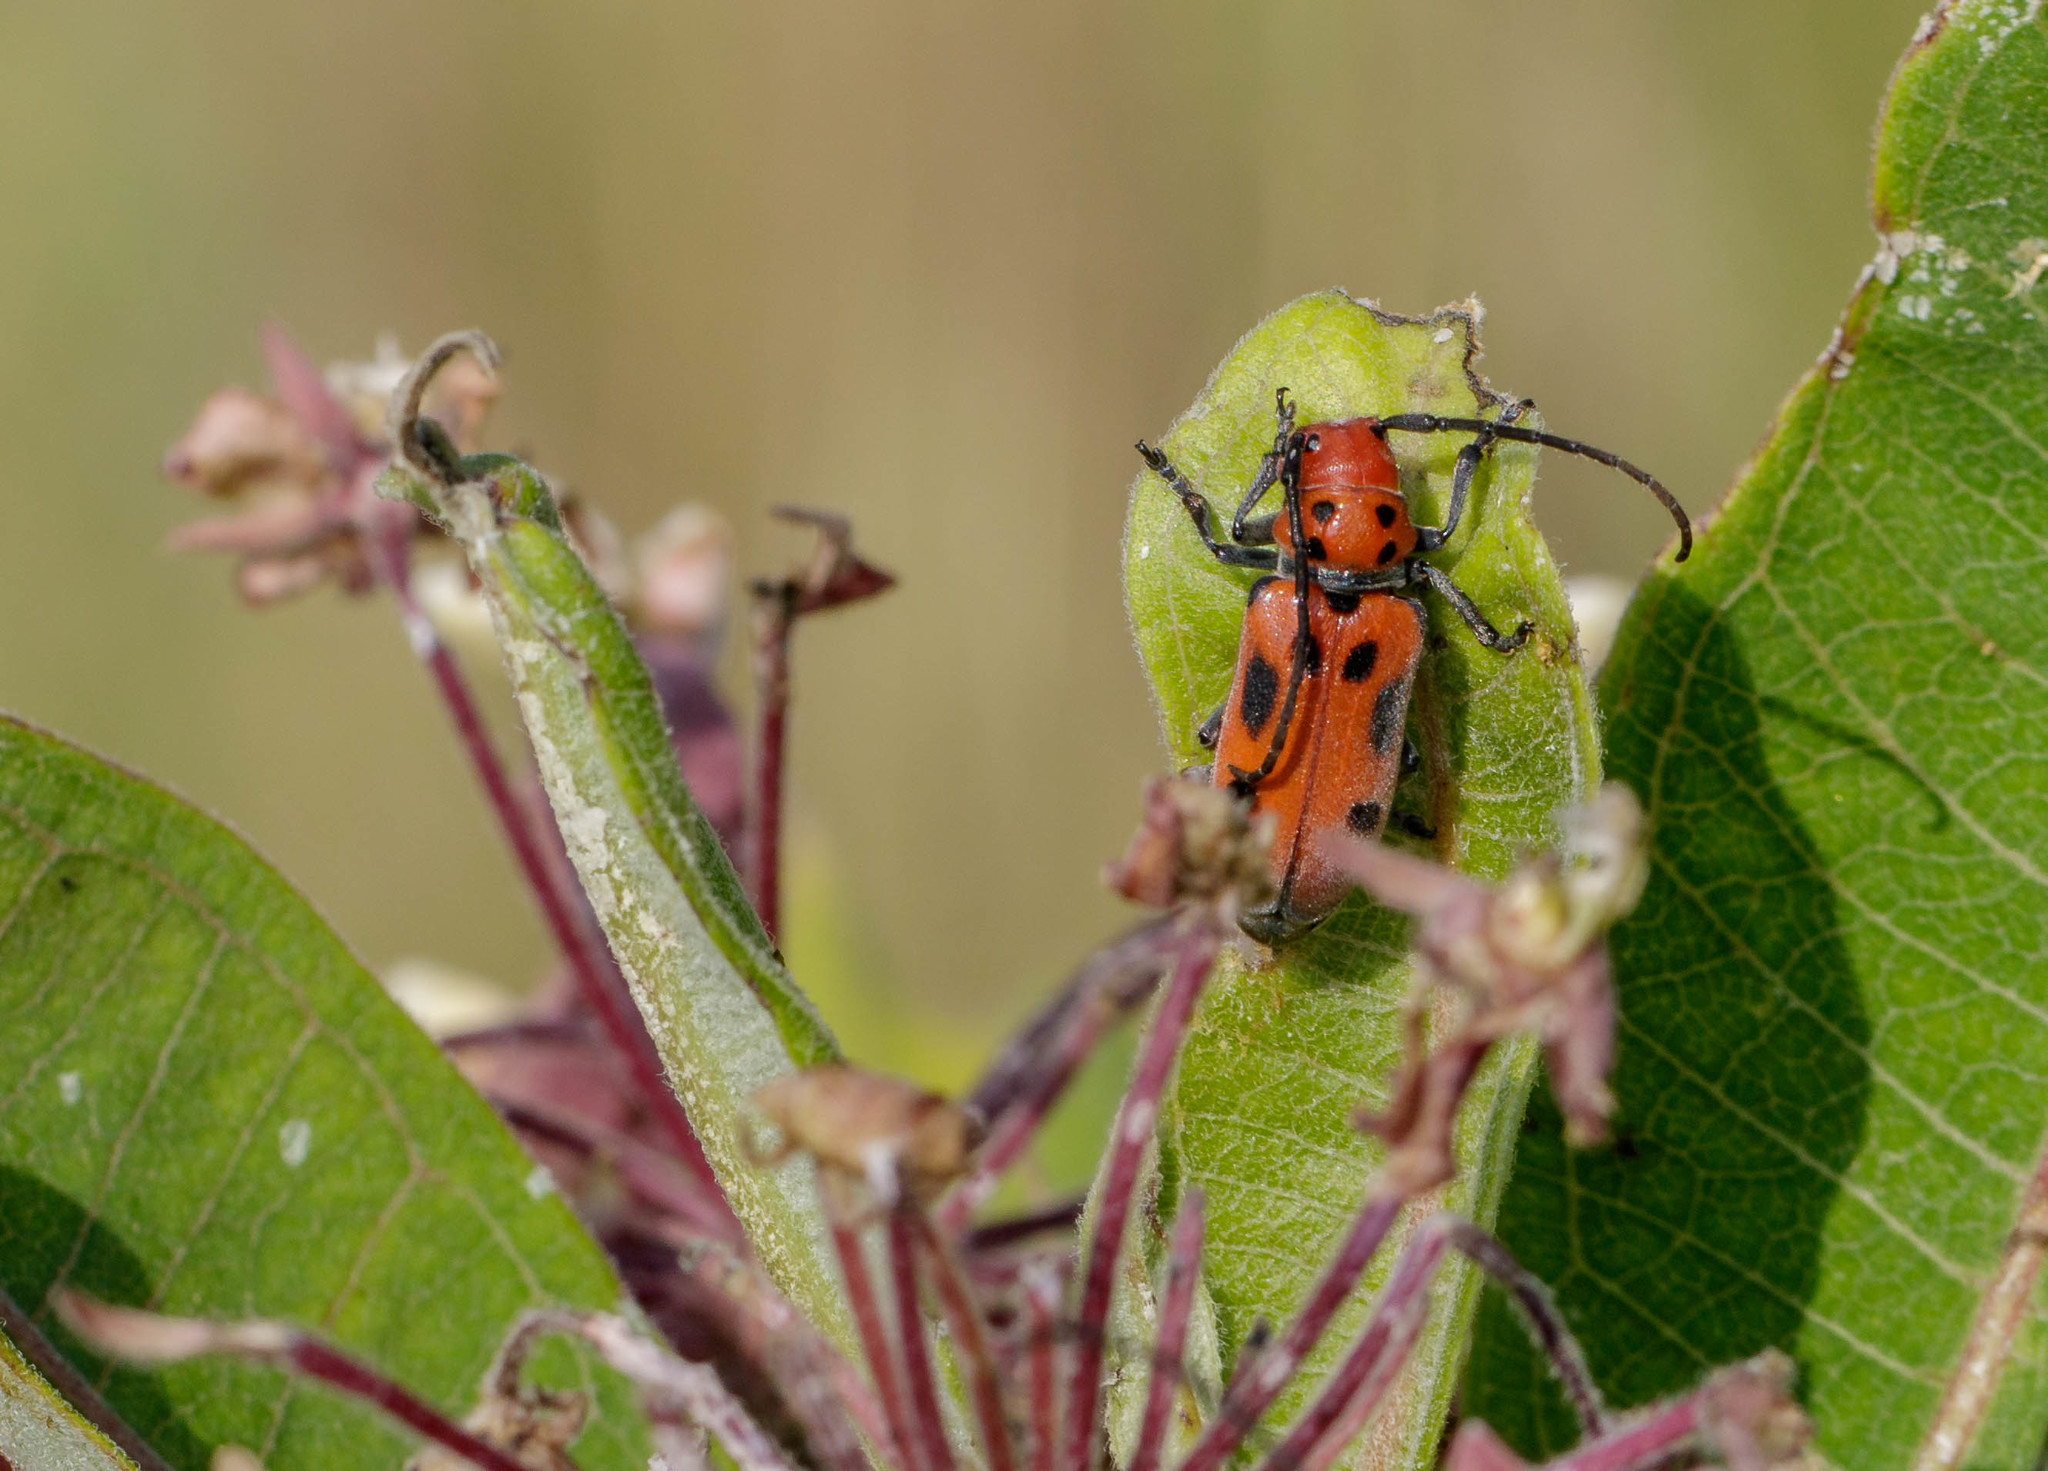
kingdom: Animalia
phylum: Arthropoda
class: Insecta
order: Coleoptera
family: Cerambycidae
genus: Tetraopes
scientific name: Tetraopes tetrophthalmus
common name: Red milkweed beetle
